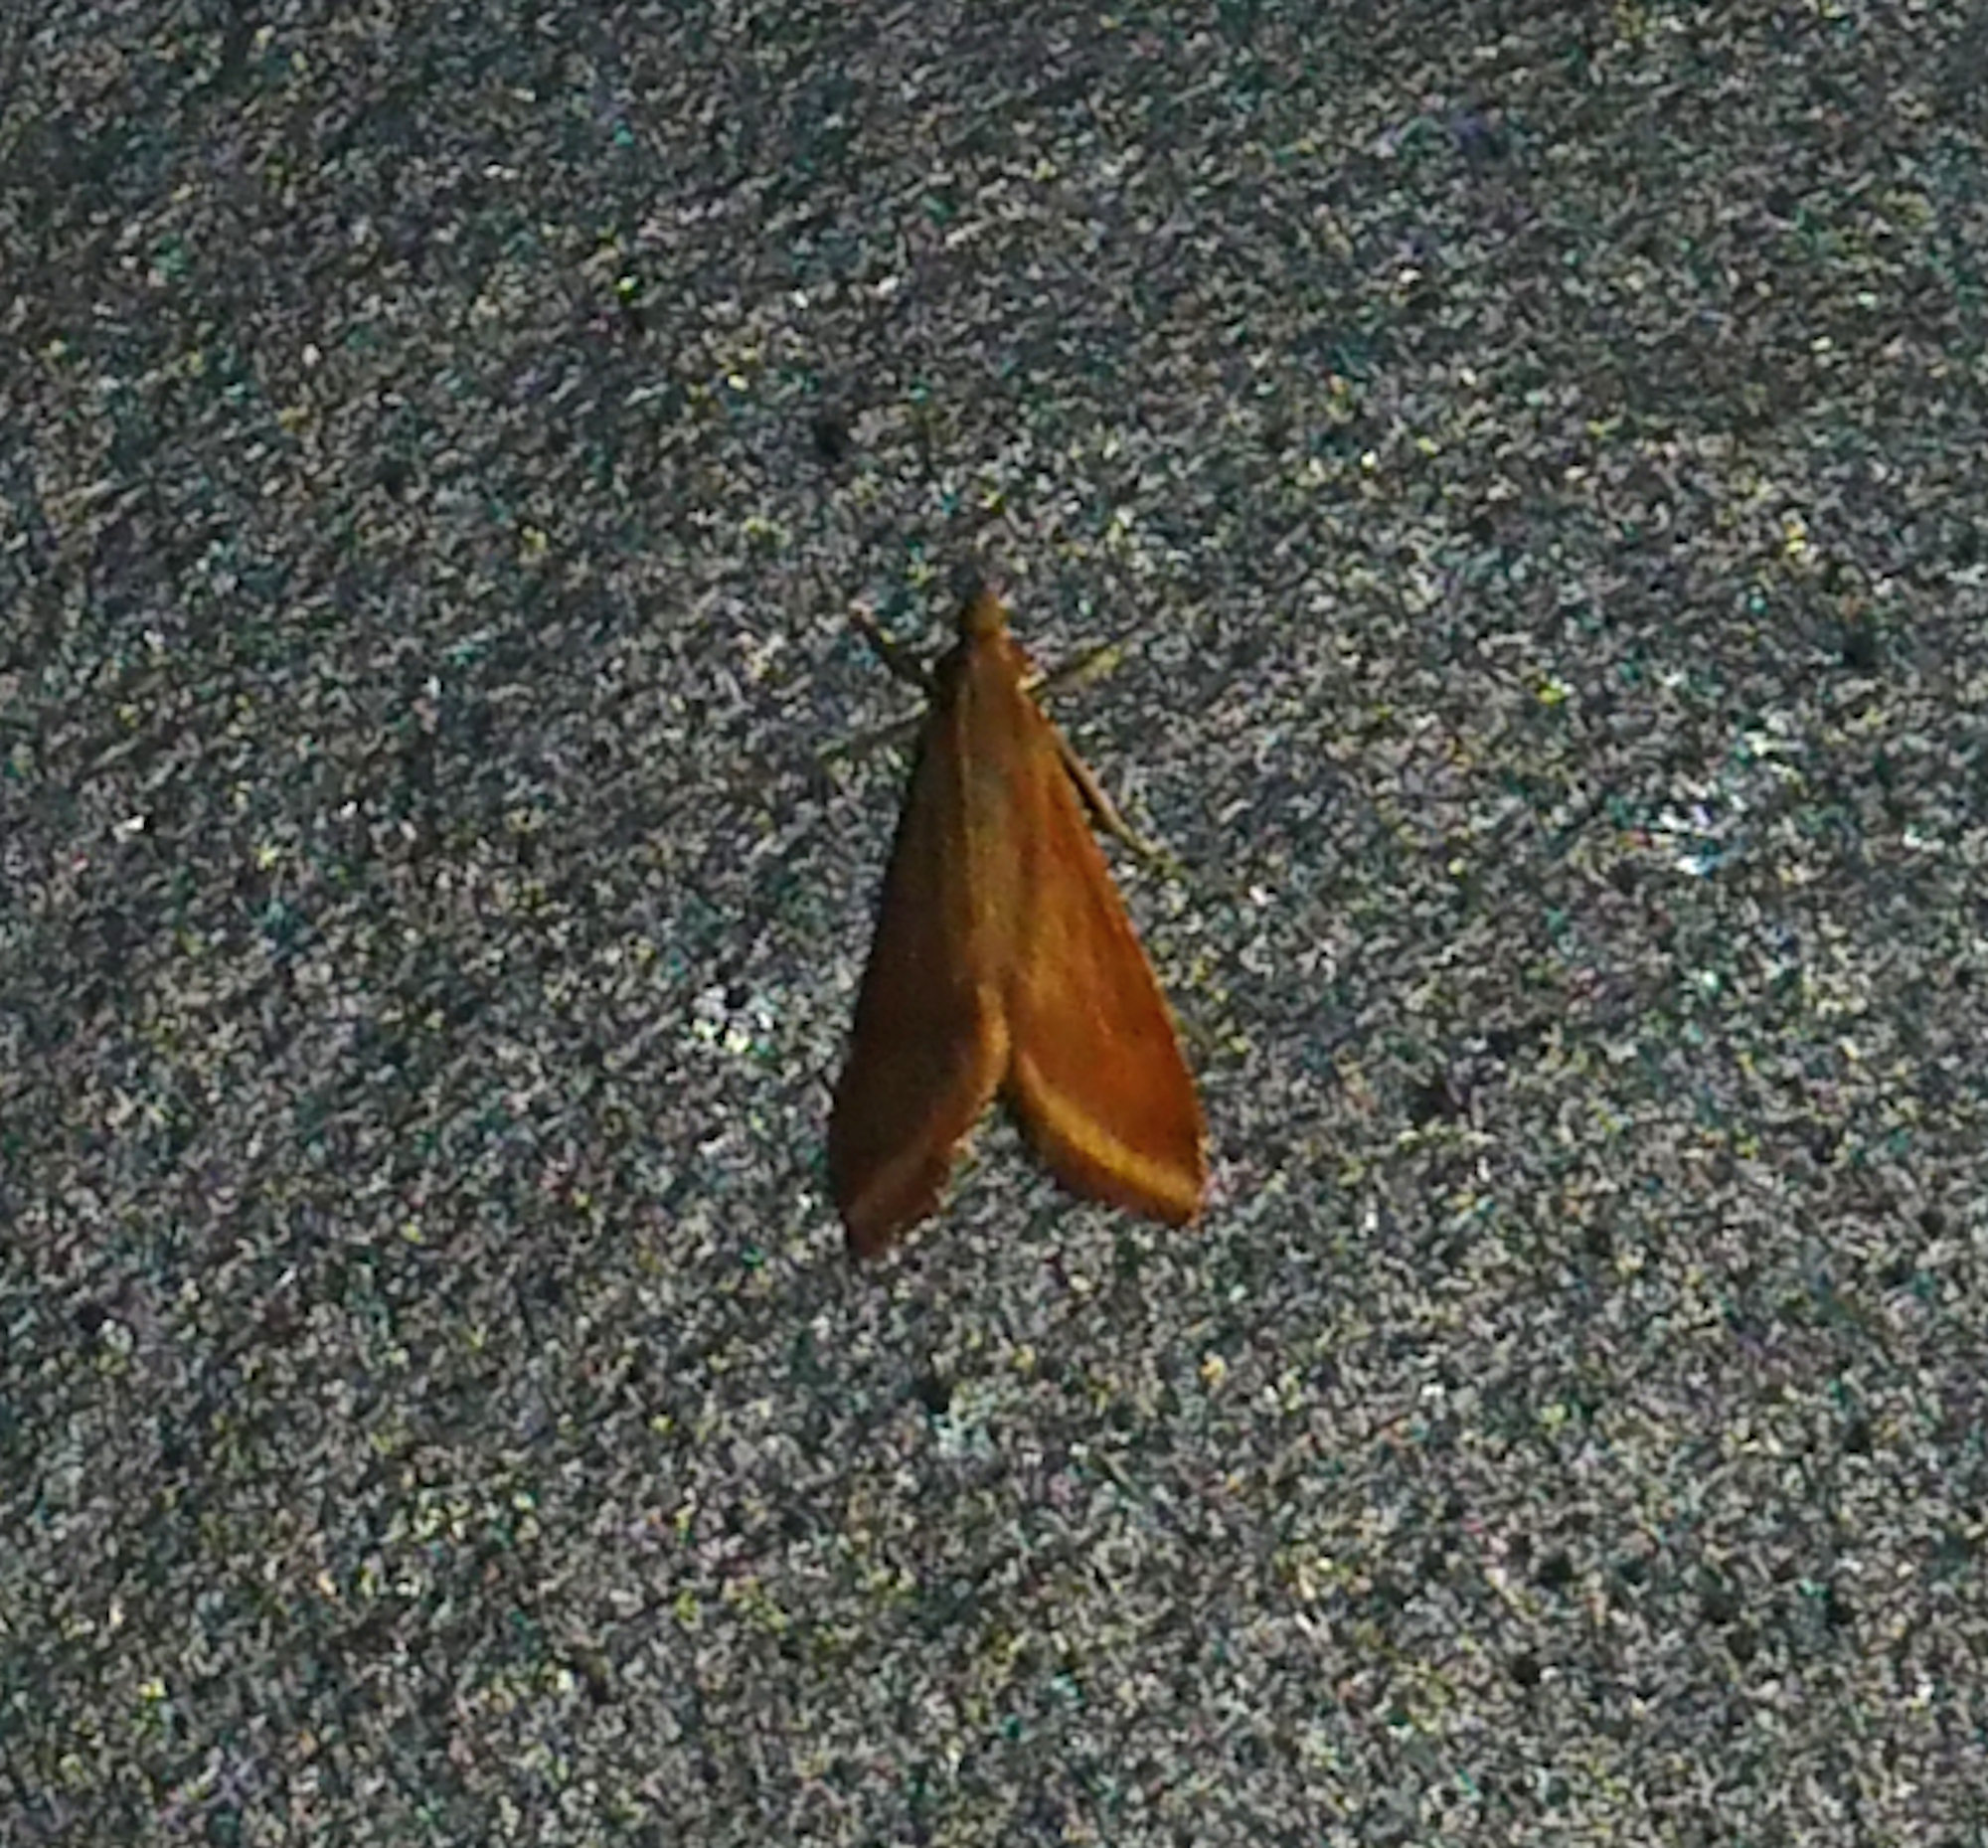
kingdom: Animalia
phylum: Arthropoda
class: Insecta
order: Lepidoptera
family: Crambidae
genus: Microtheoris
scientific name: Microtheoris ophionalis
